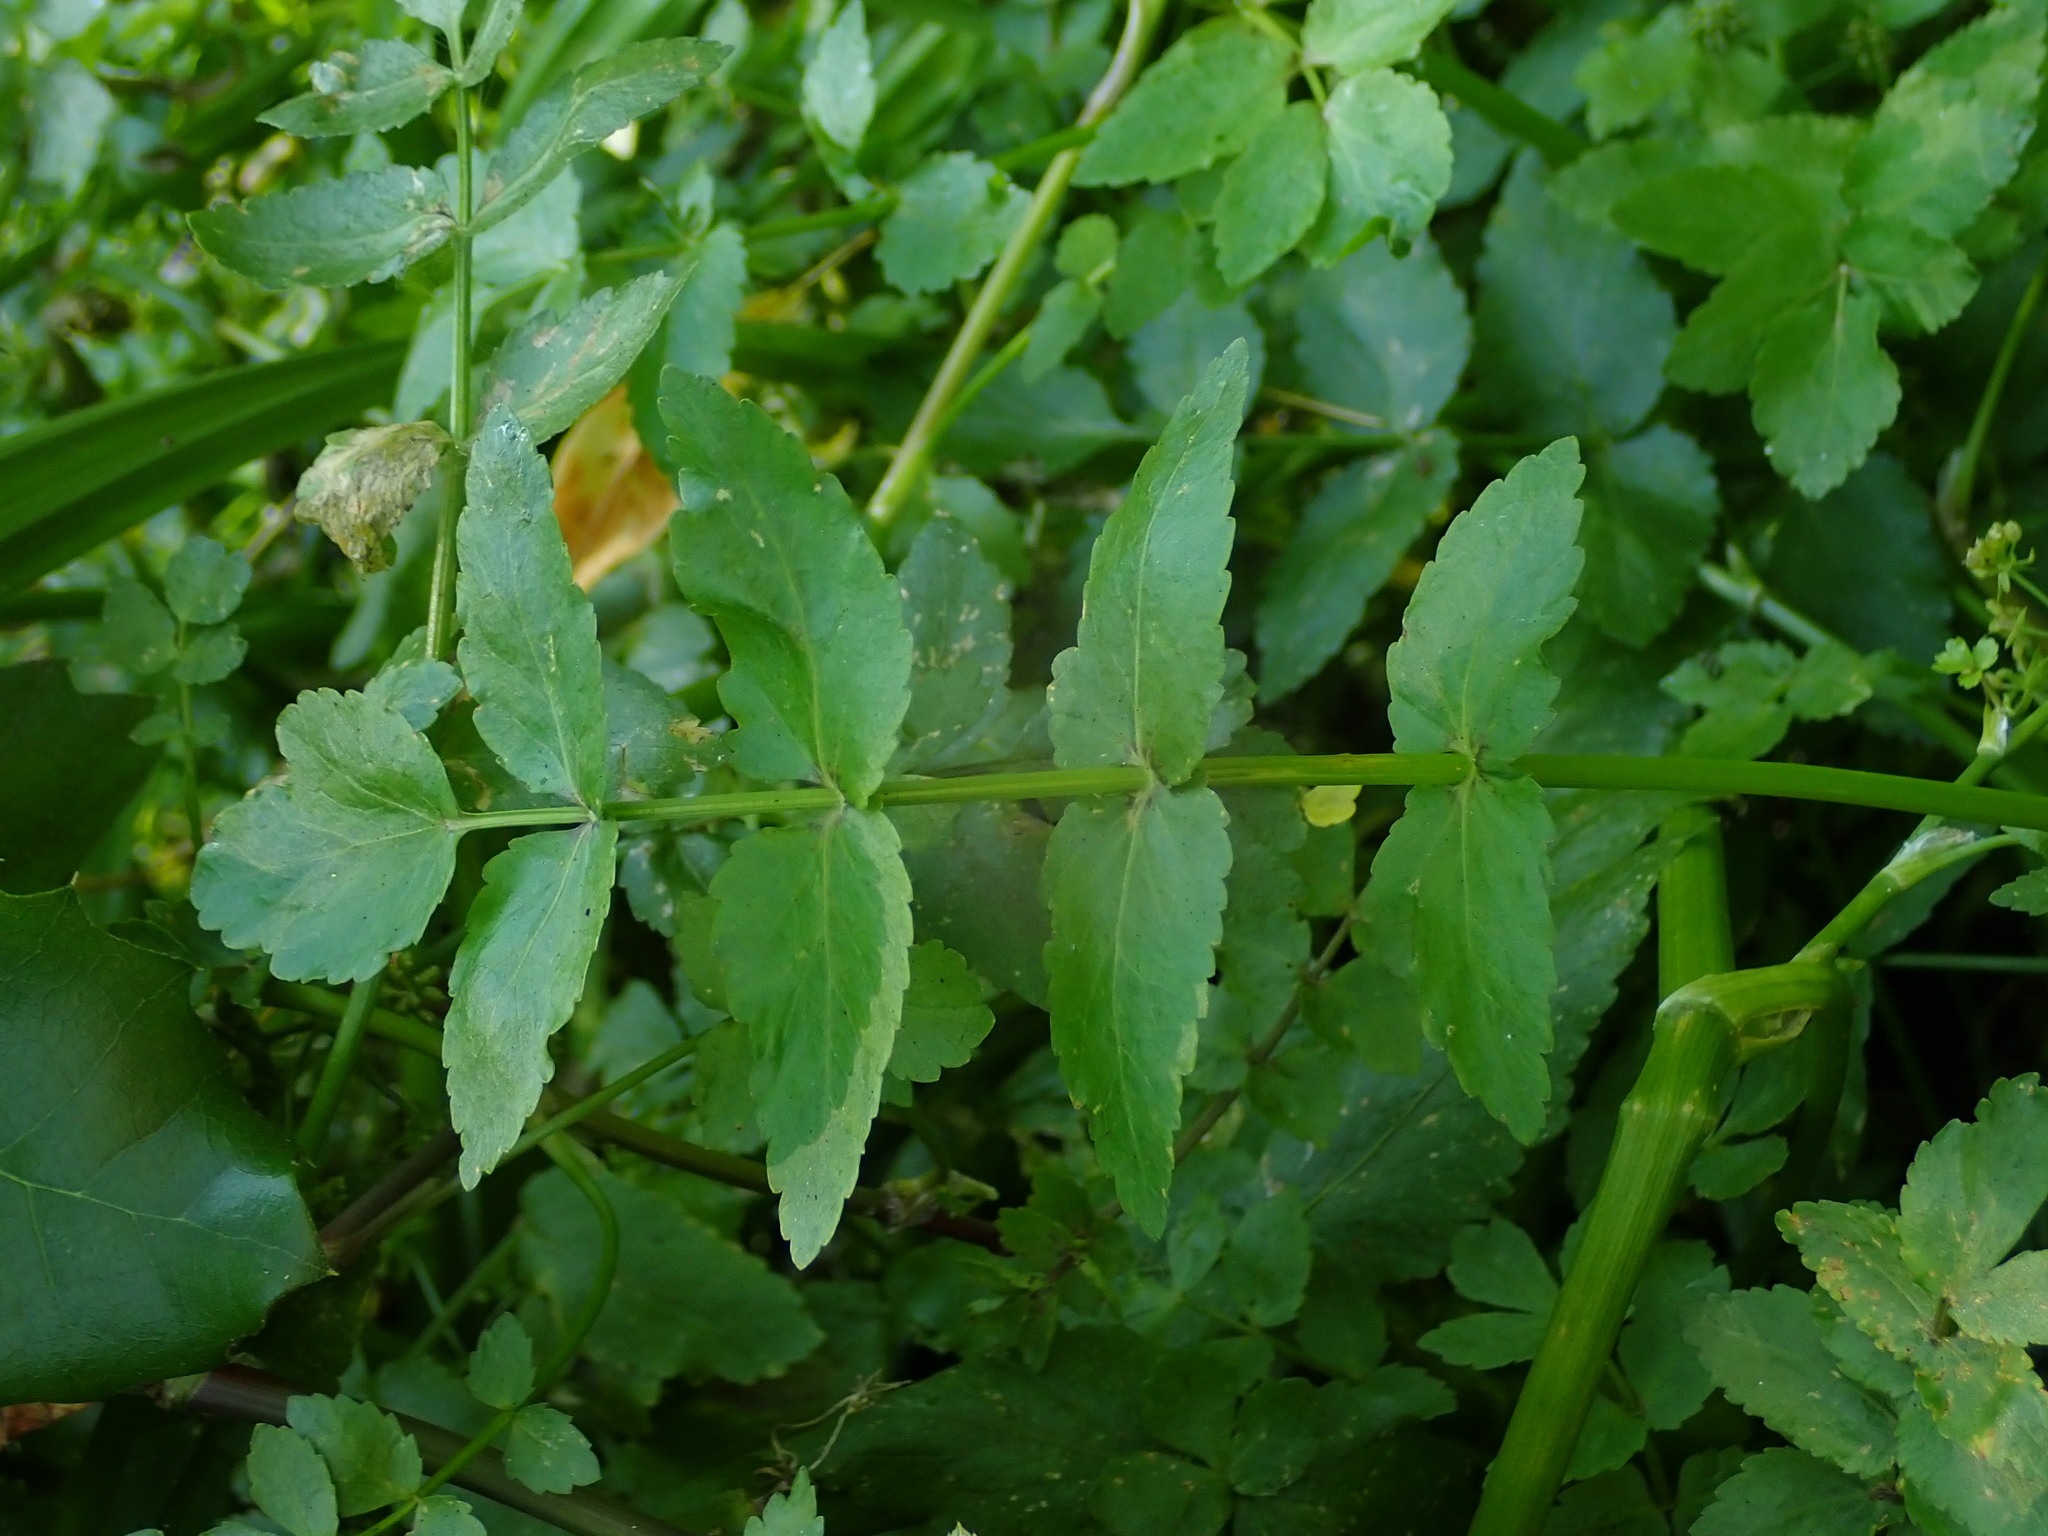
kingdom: Plantae
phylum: Tracheophyta
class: Magnoliopsida
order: Apiales
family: Apiaceae
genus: Helosciadium
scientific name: Helosciadium nodiflorum
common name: Fool's-watercress
